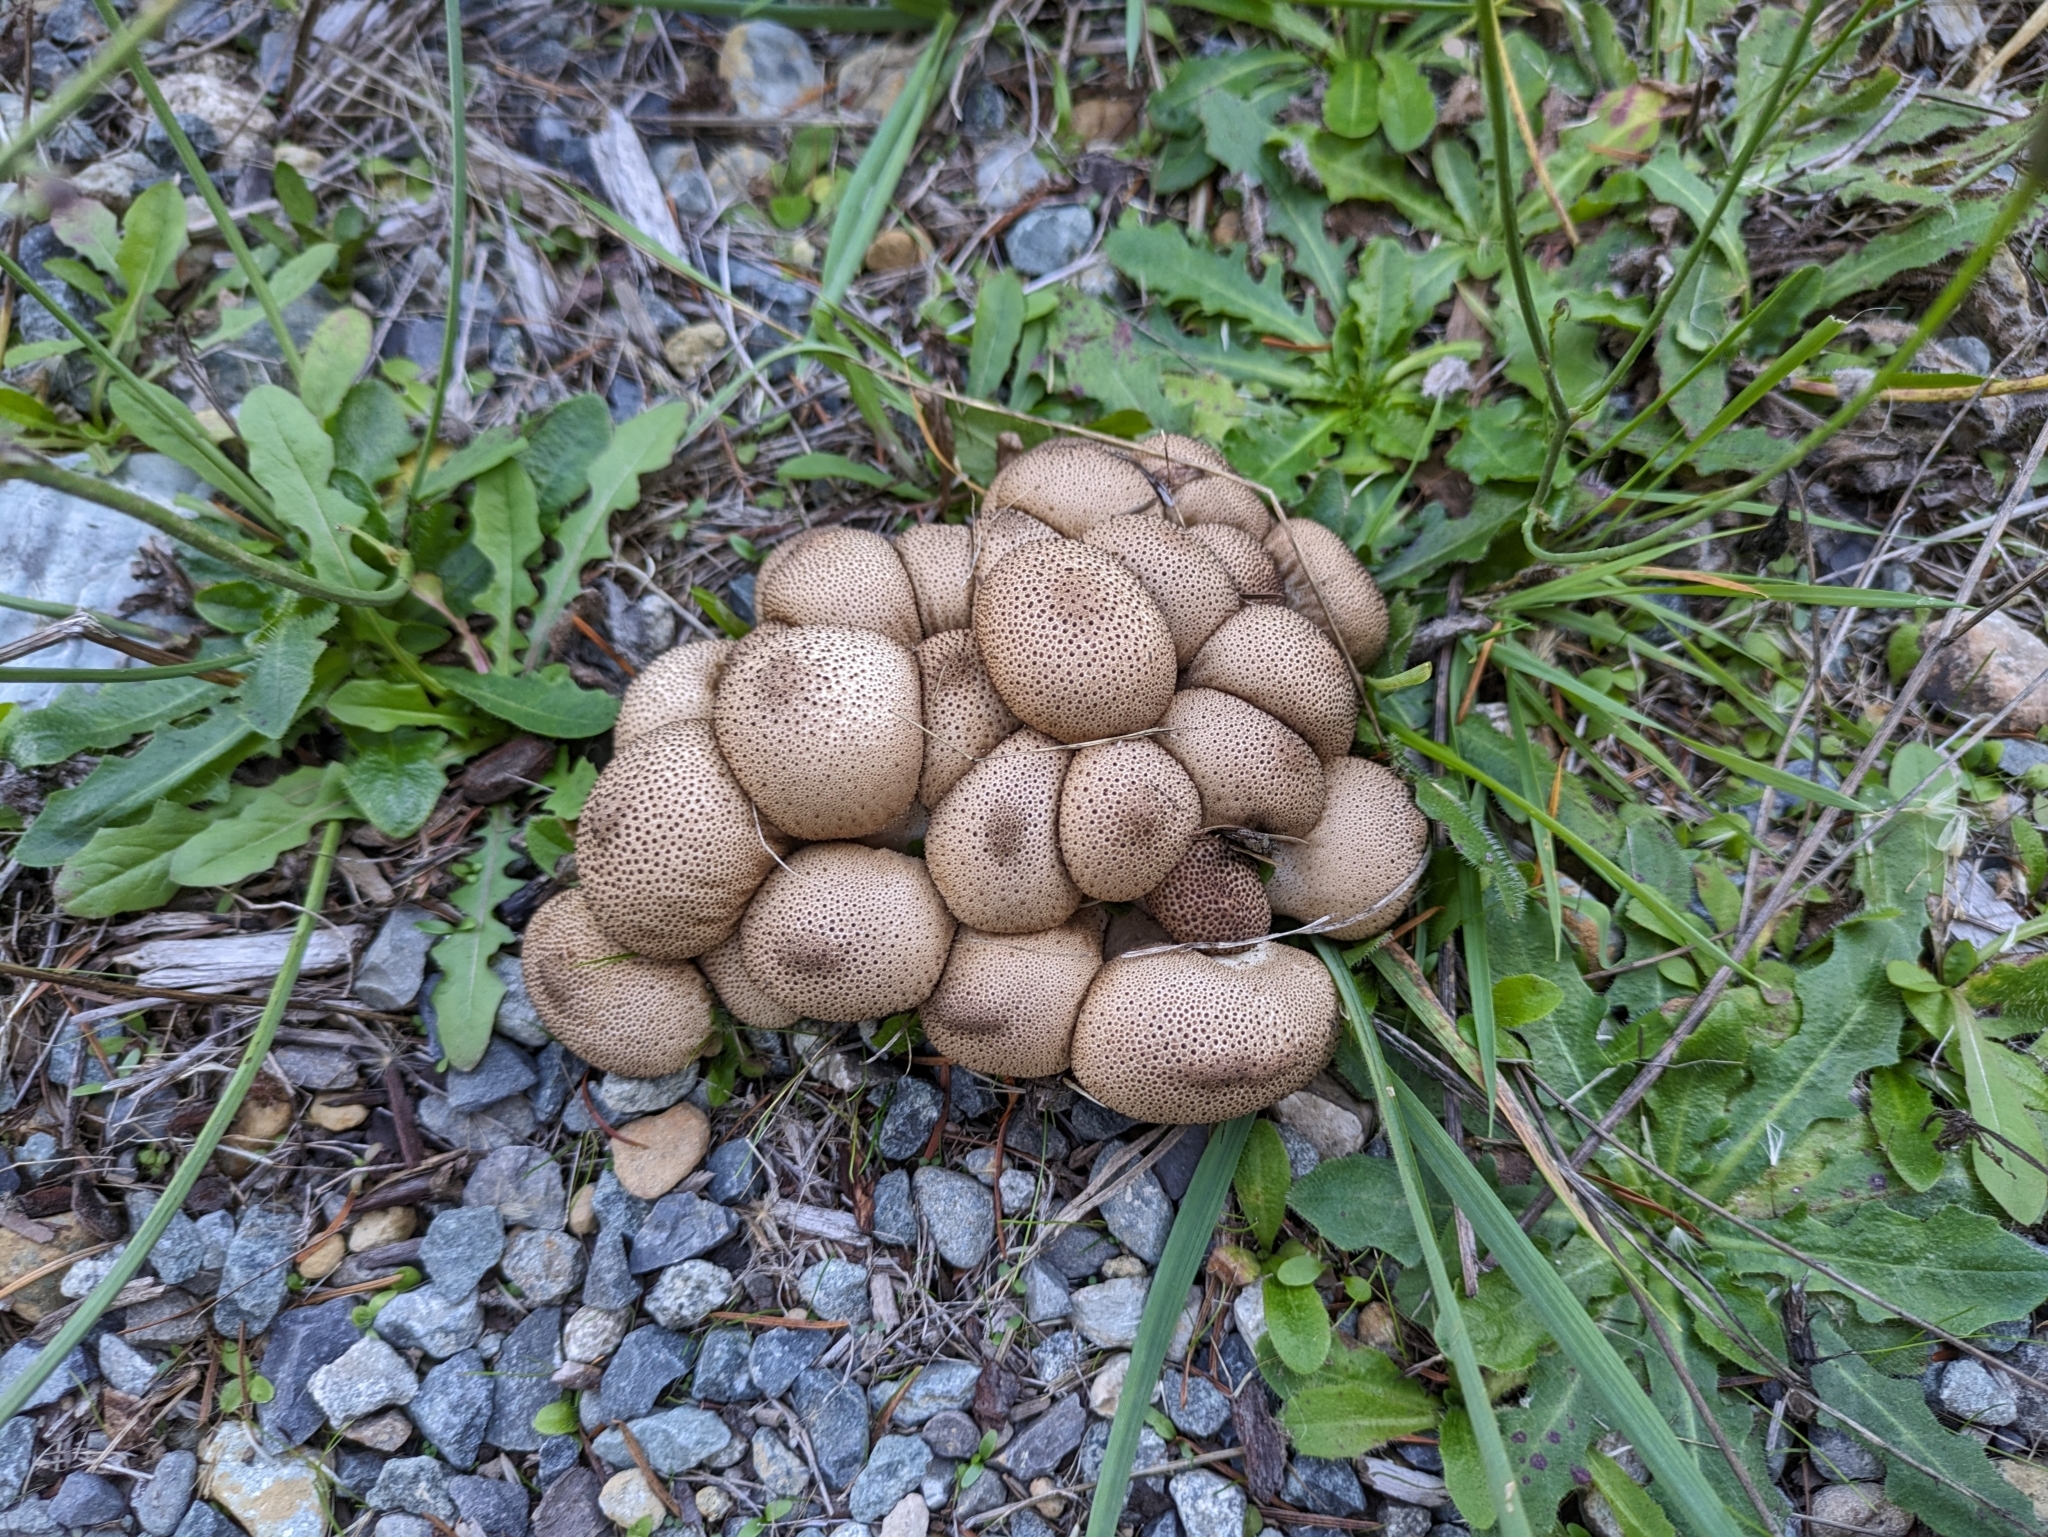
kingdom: Fungi
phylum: Basidiomycota
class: Agaricomycetes
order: Agaricales
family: Lycoperdaceae
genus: Apioperdon
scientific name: Apioperdon pyriforme
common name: Pear-shaped puffball
